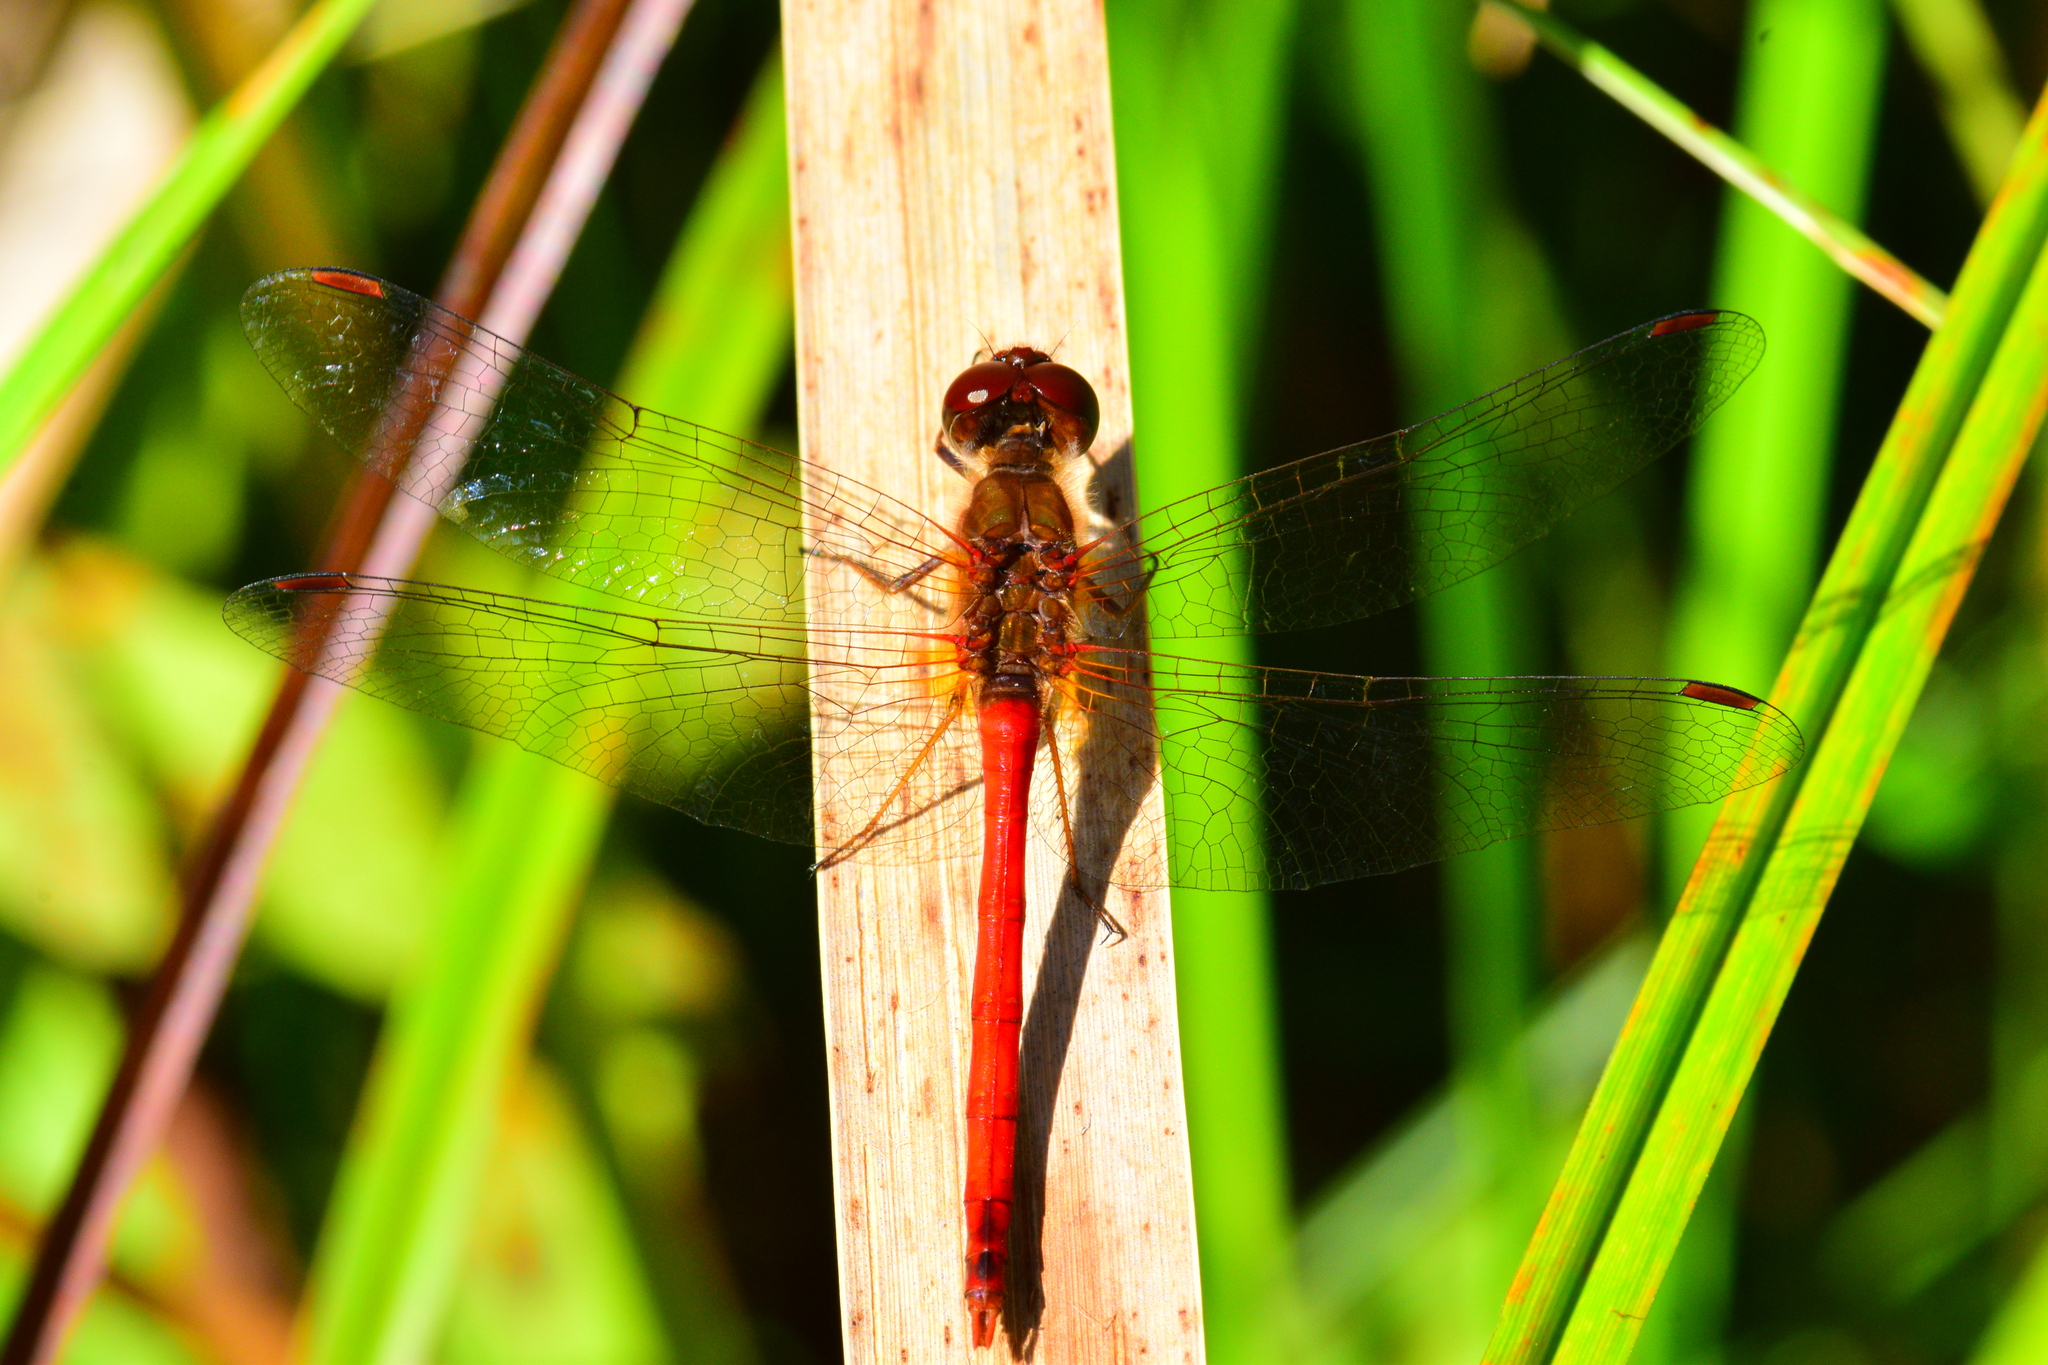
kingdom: Animalia
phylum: Arthropoda
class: Insecta
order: Odonata
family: Libellulidae
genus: Sympetrum
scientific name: Sympetrum vicinum
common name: Autumn meadowhawk
